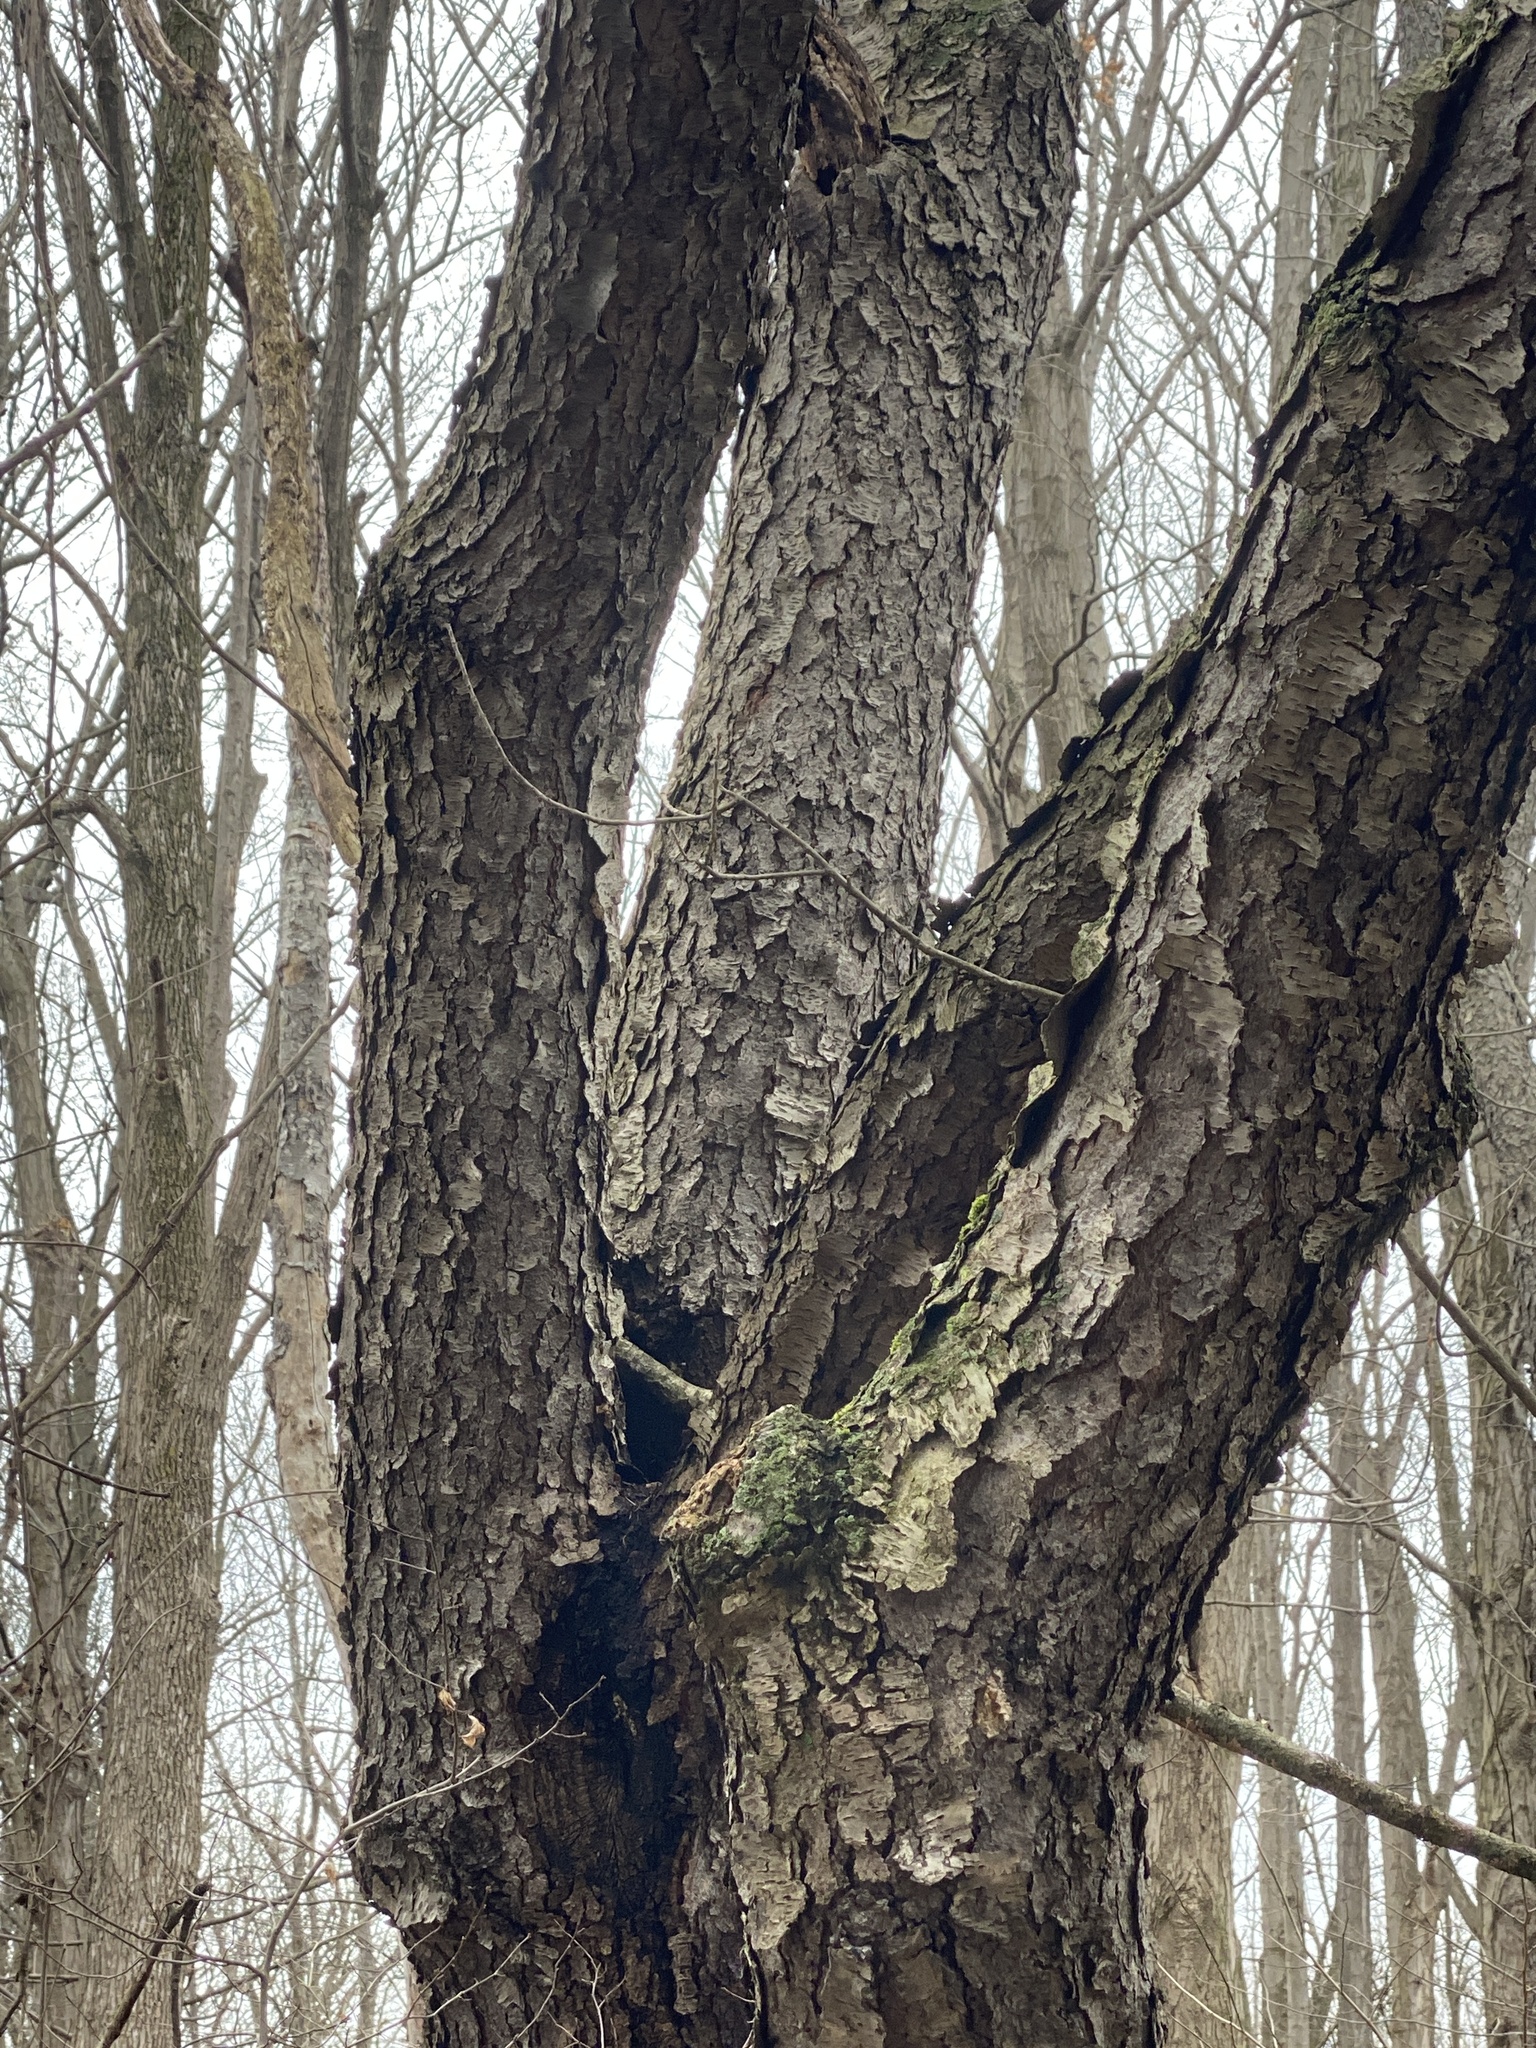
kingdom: Plantae
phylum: Tracheophyta
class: Magnoliopsida
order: Rosales
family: Rosaceae
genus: Prunus
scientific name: Prunus serotina
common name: Black cherry
